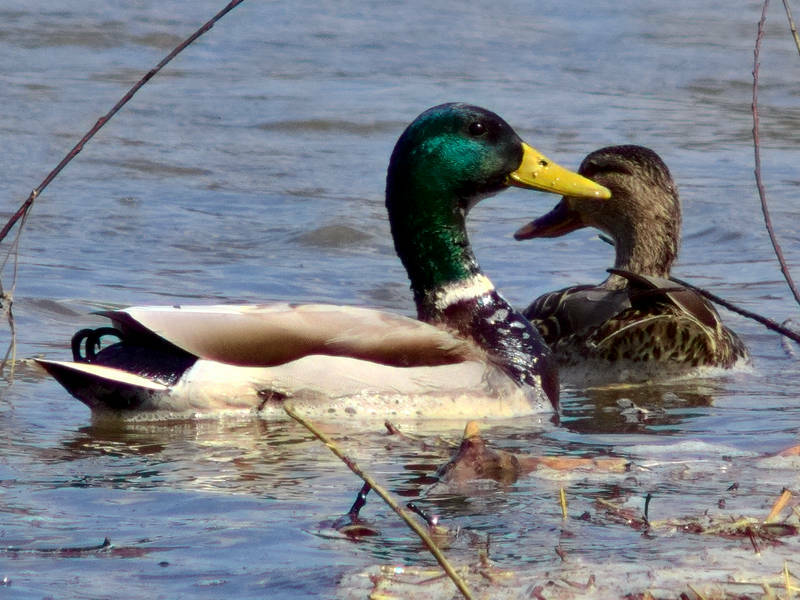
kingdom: Animalia
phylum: Chordata
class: Aves
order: Anseriformes
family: Anatidae
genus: Anas
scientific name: Anas platyrhynchos
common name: Mallard
